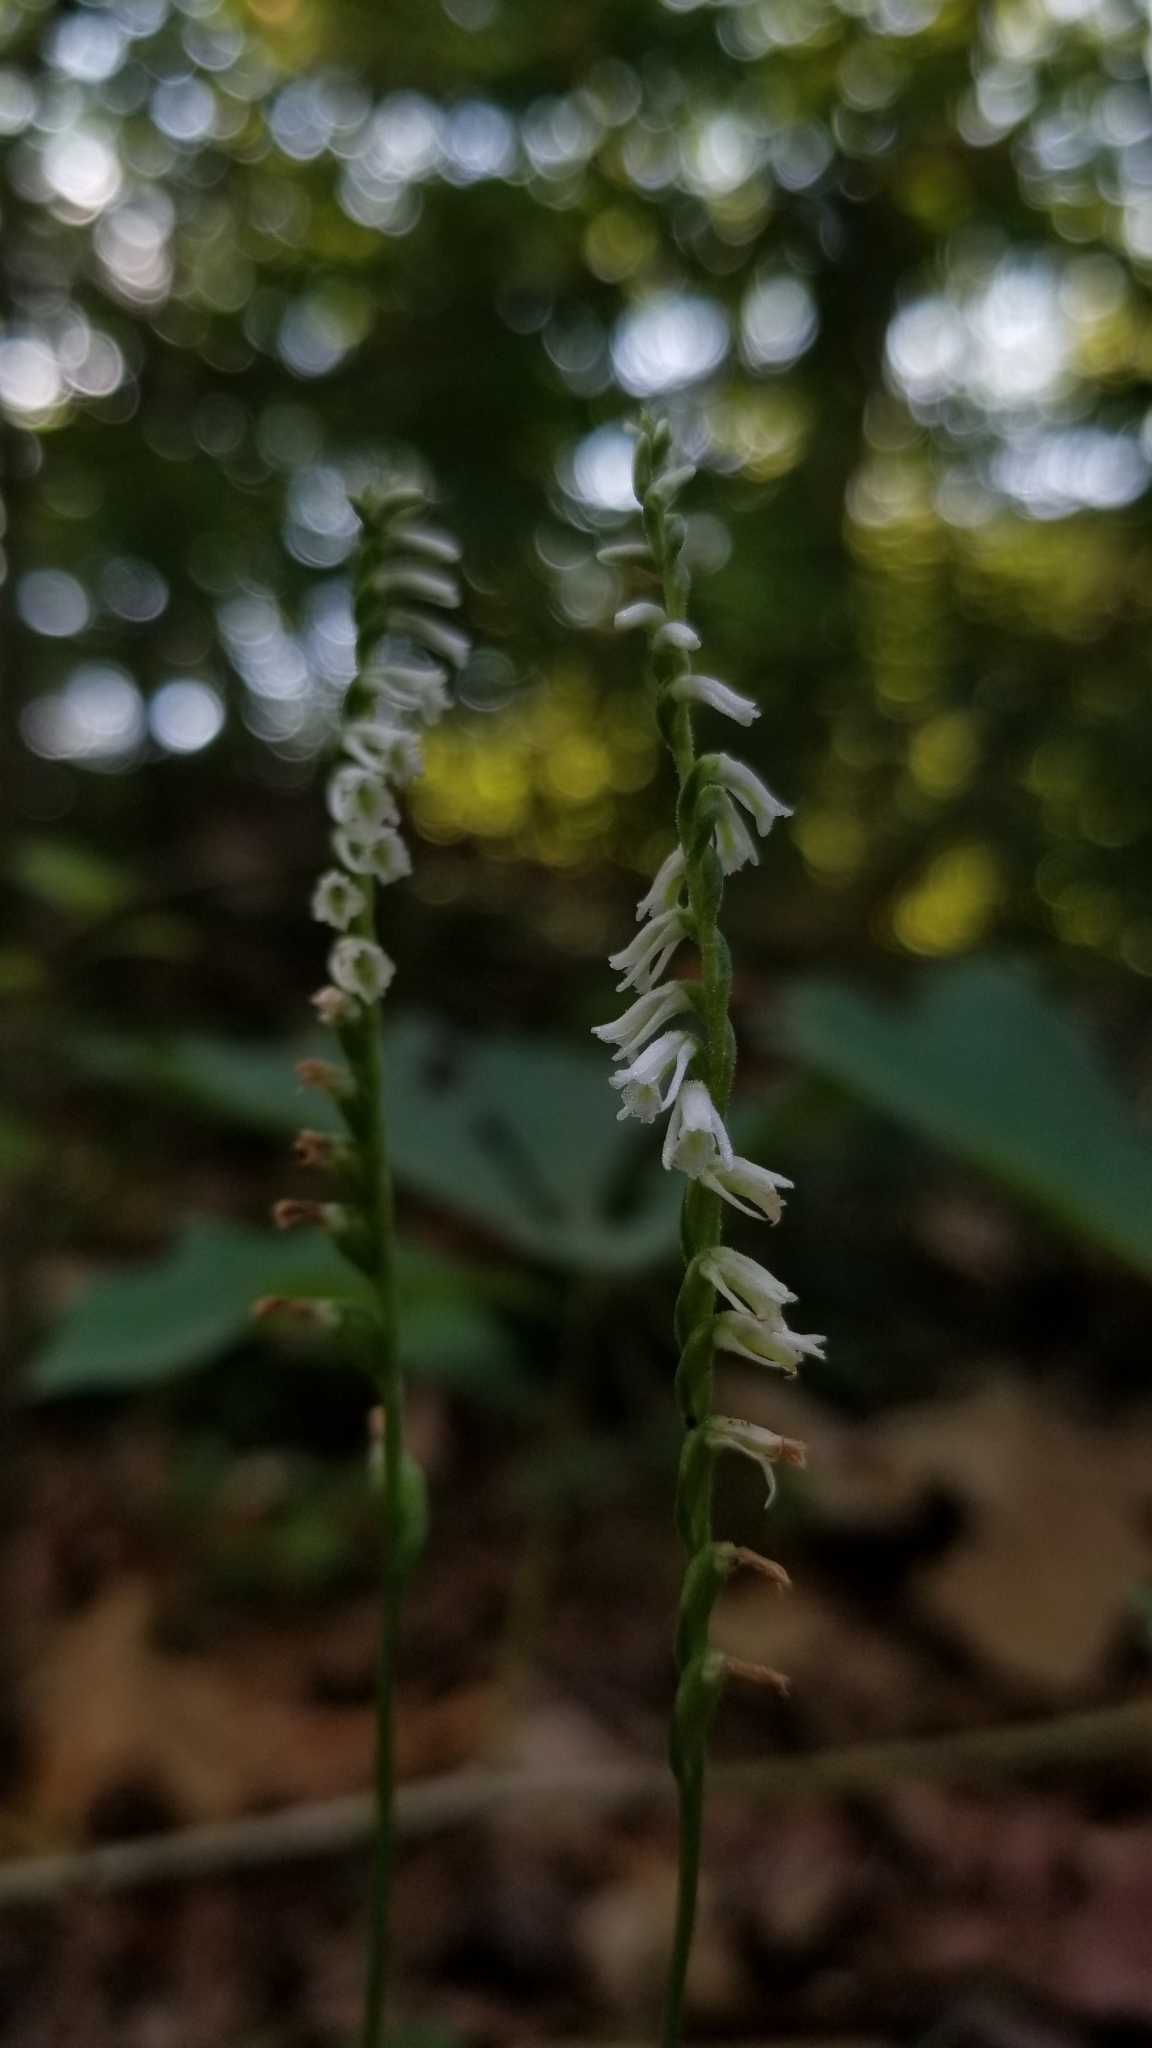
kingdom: Plantae
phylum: Tracheophyta
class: Liliopsida
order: Asparagales
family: Orchidaceae
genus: Spiranthes
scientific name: Spiranthes lacera
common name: Northern slender ladies'-tresses
